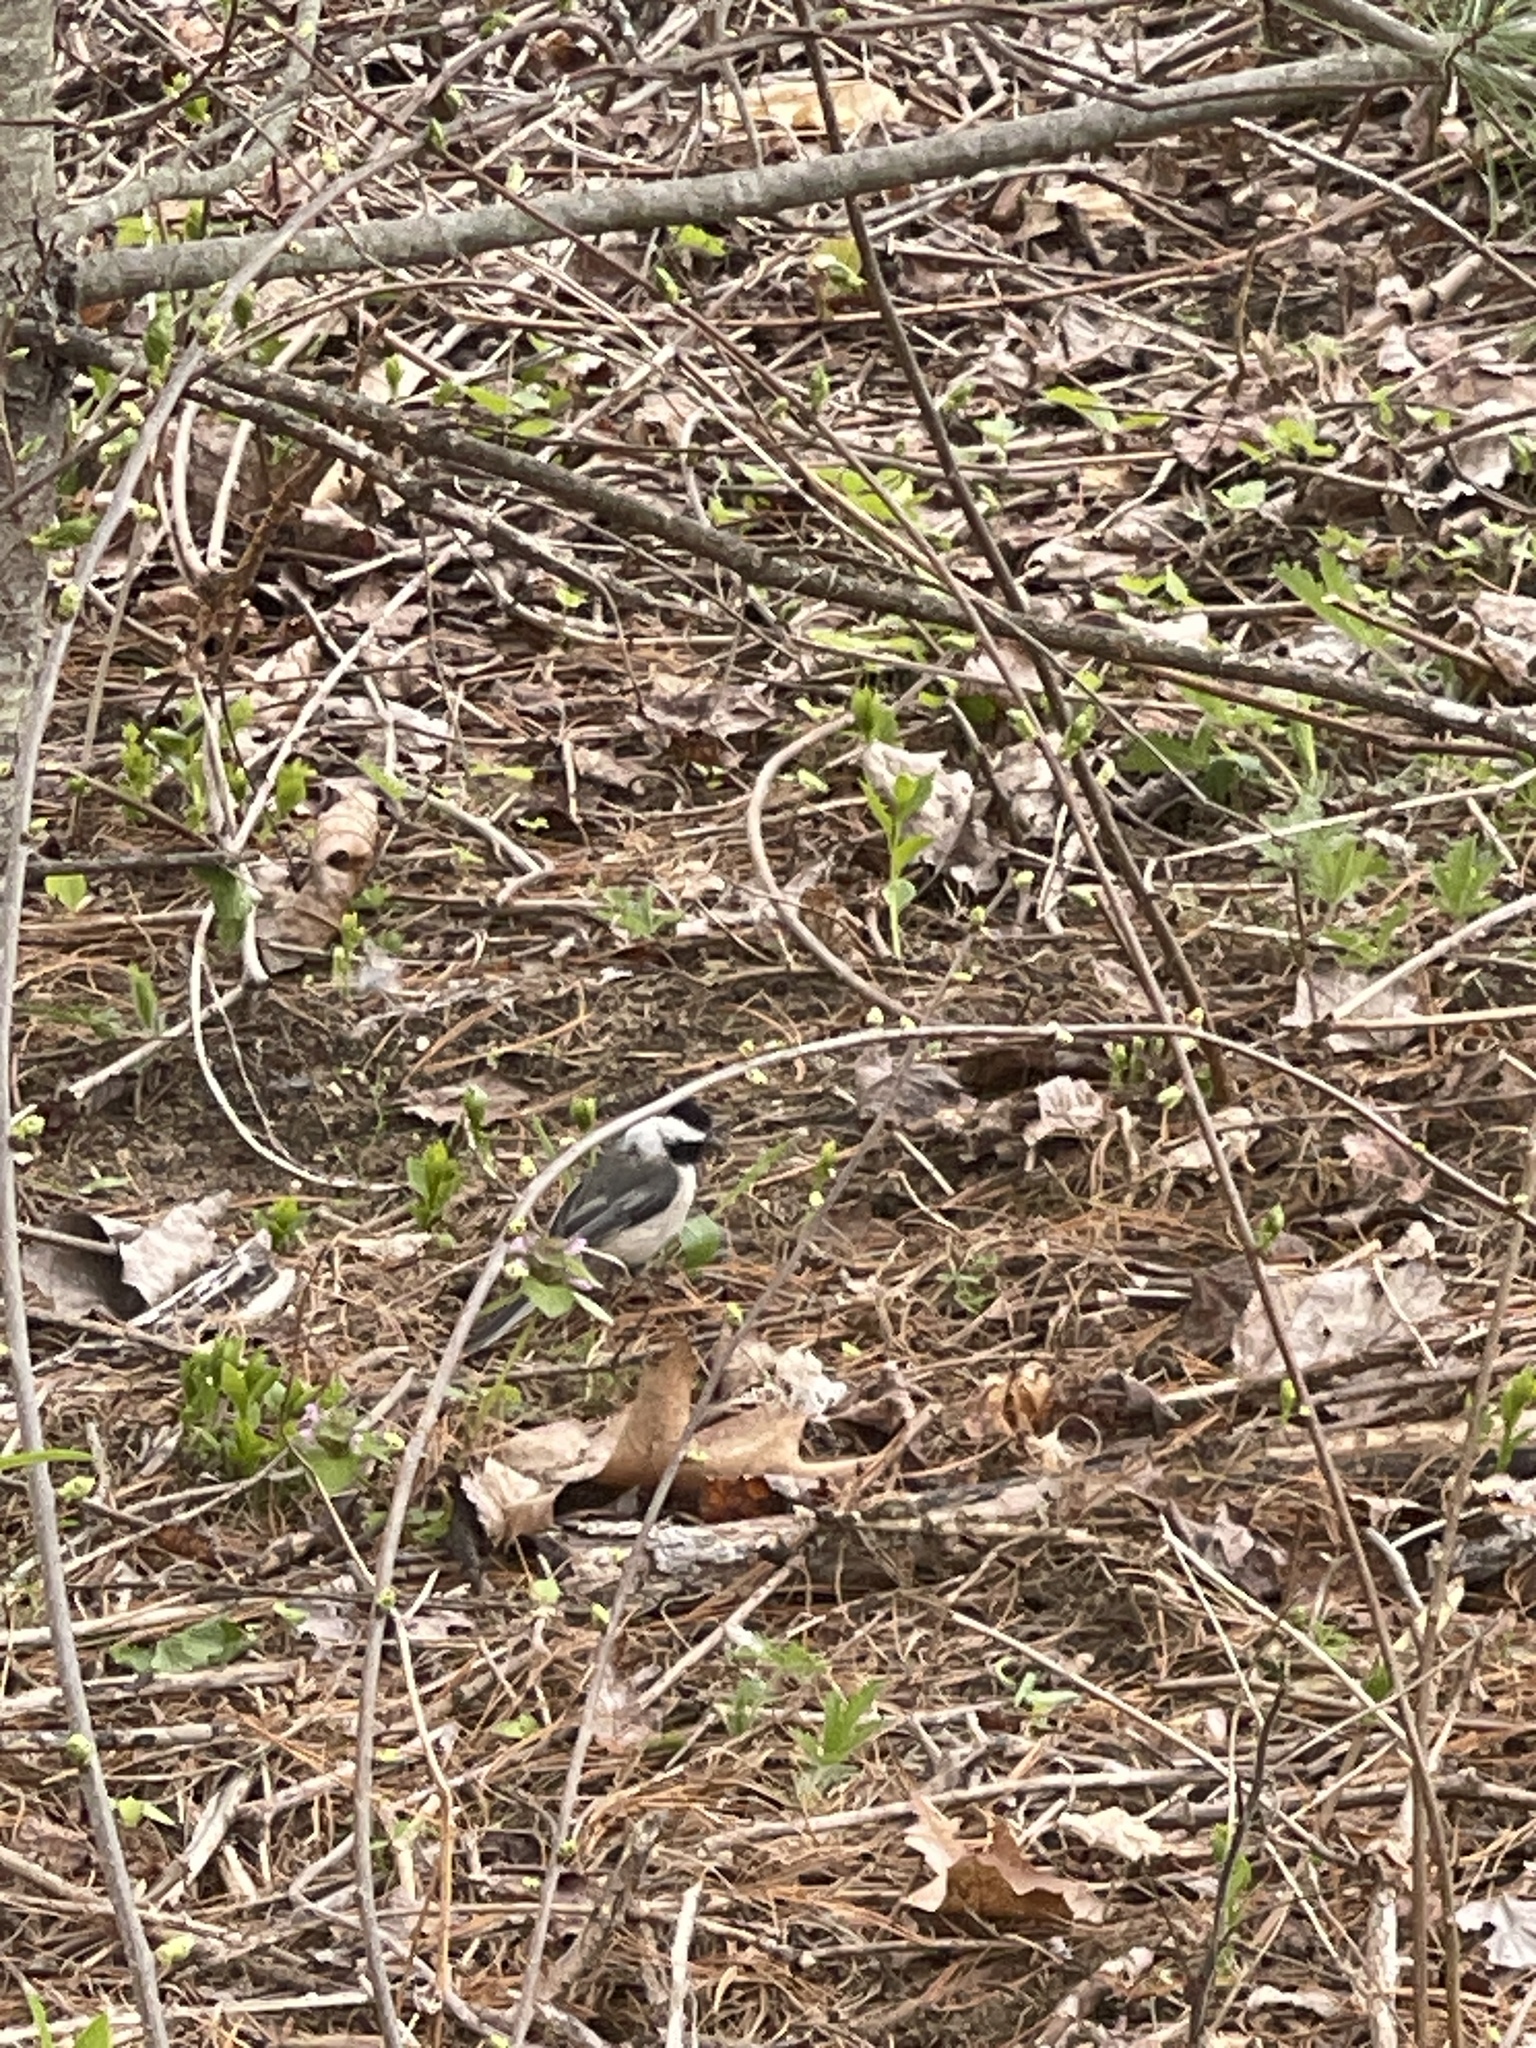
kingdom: Animalia
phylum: Chordata
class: Aves
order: Passeriformes
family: Paridae
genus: Poecile
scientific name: Poecile atricapillus
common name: Black-capped chickadee
